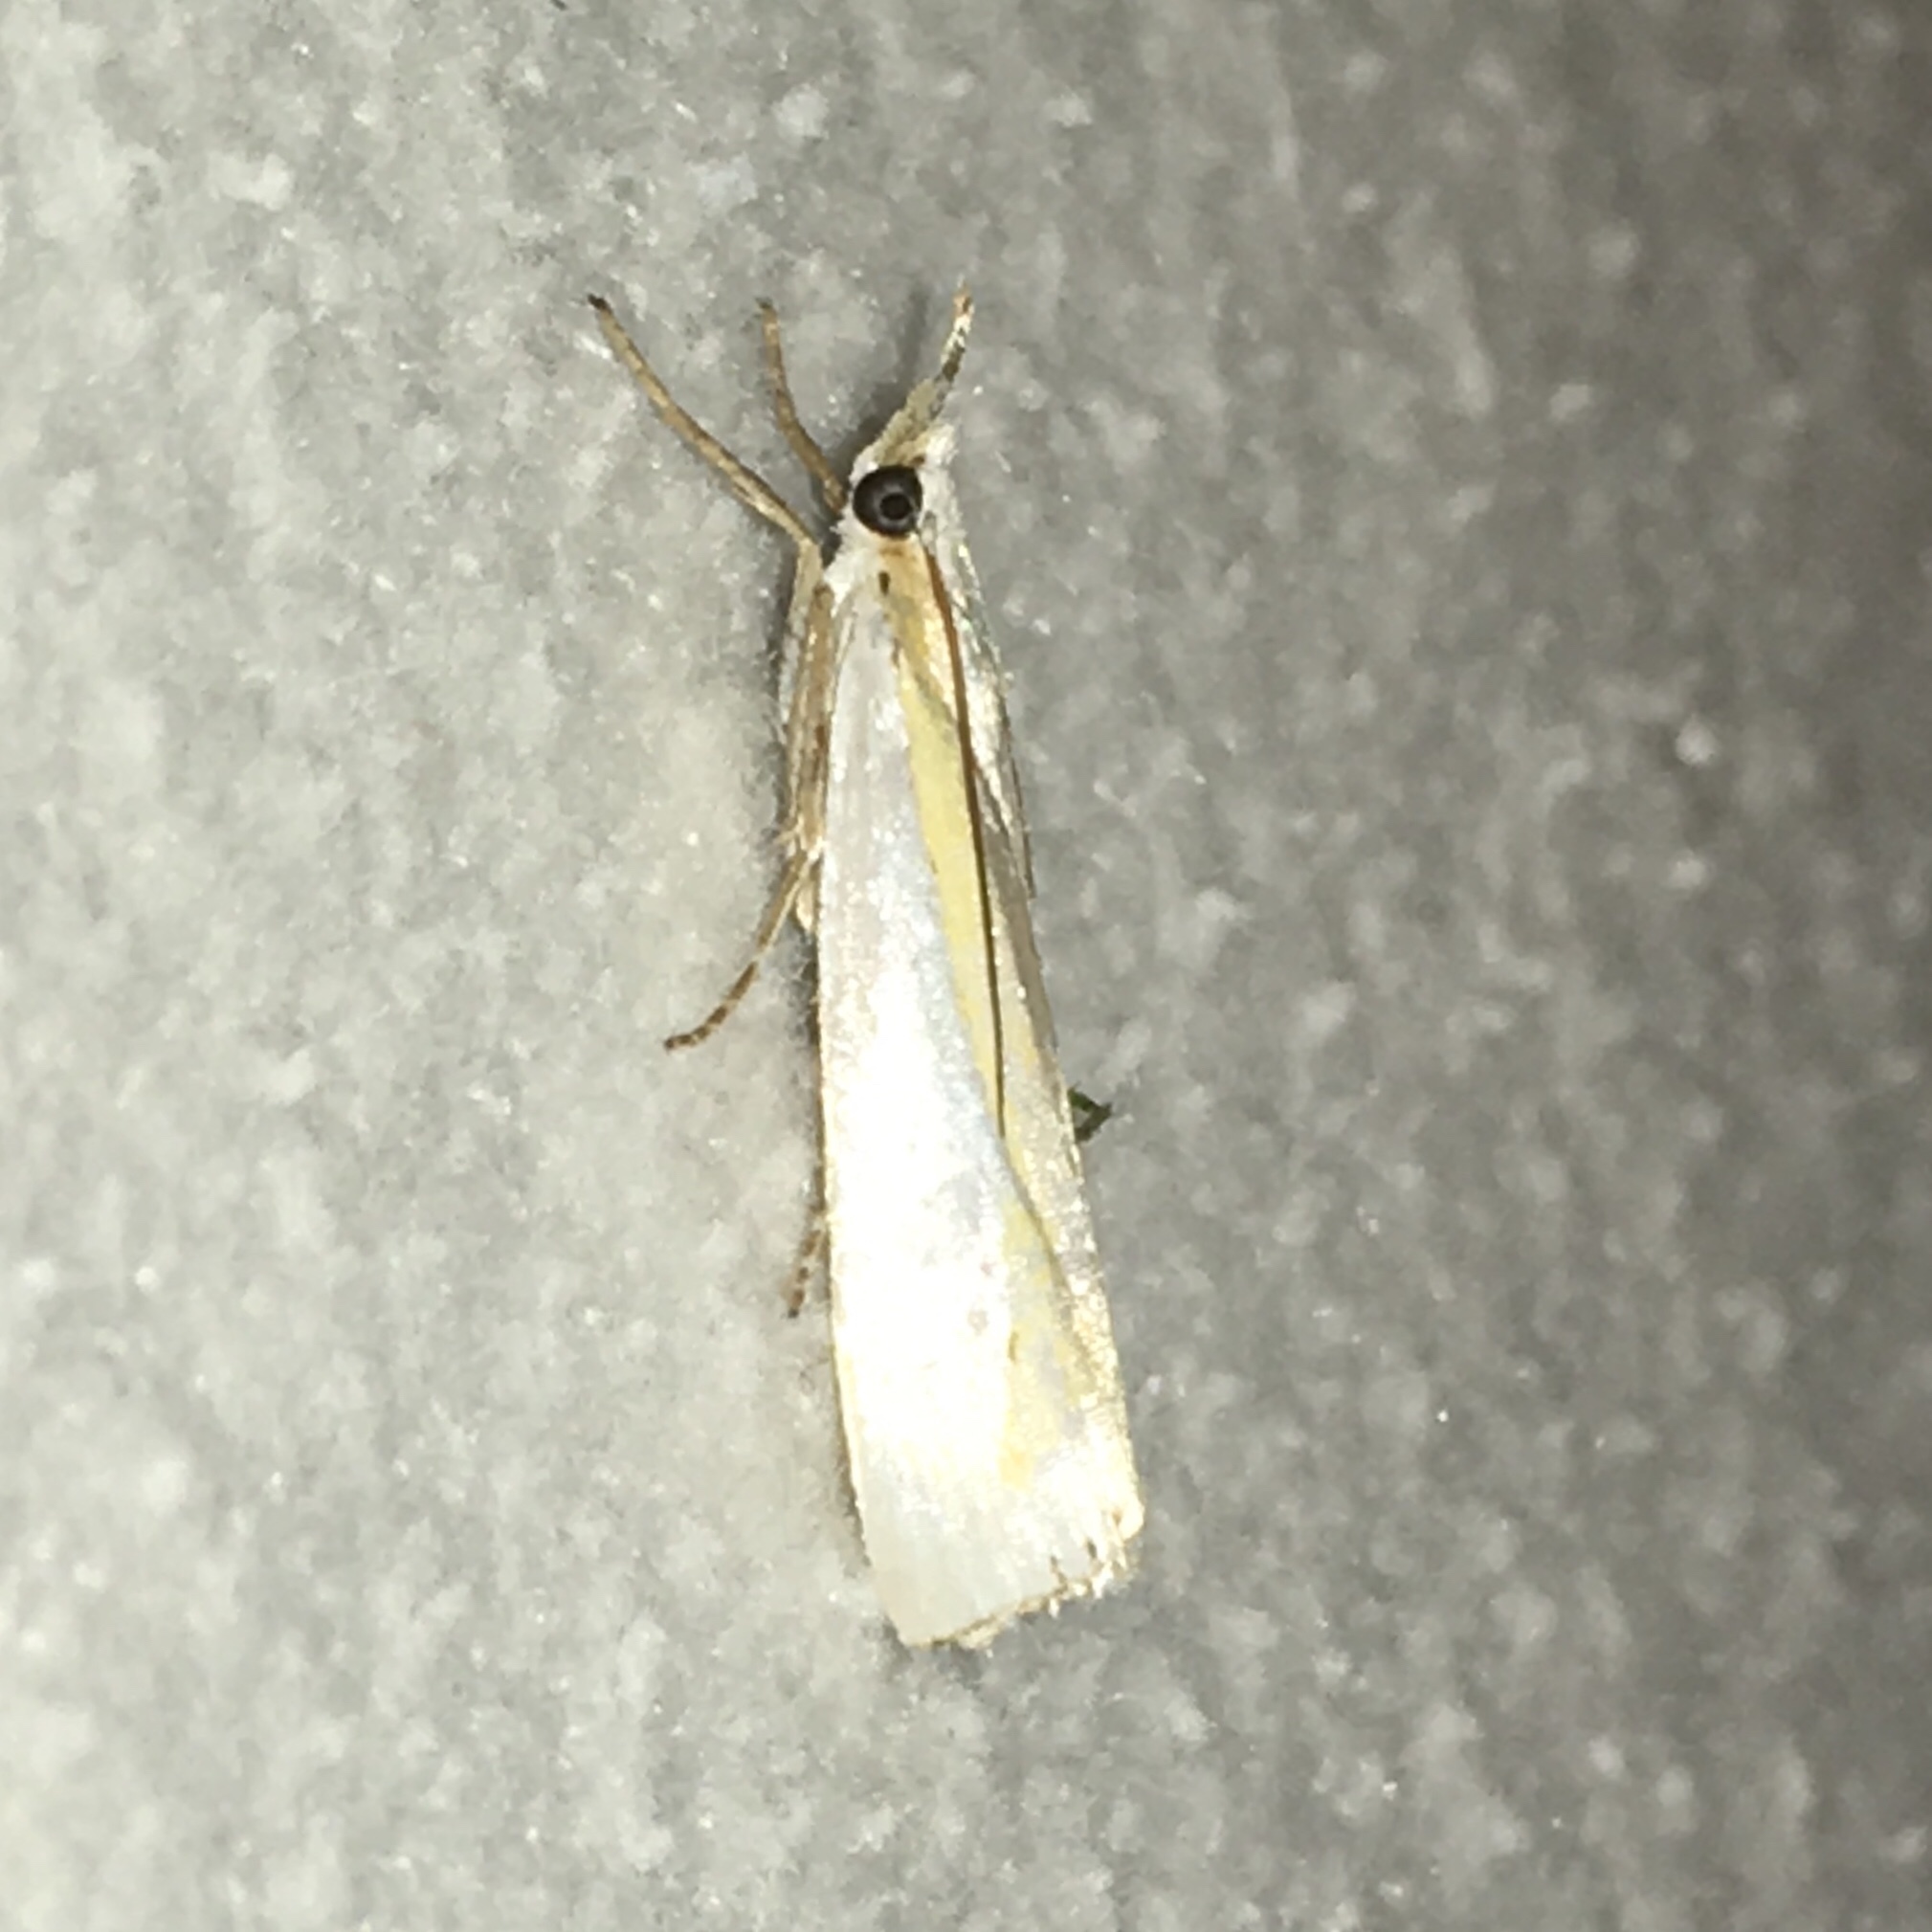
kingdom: Animalia
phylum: Arthropoda
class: Insecta
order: Lepidoptera
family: Crambidae
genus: Crambus
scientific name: Crambus girardellus
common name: Girard's grass-veneer
